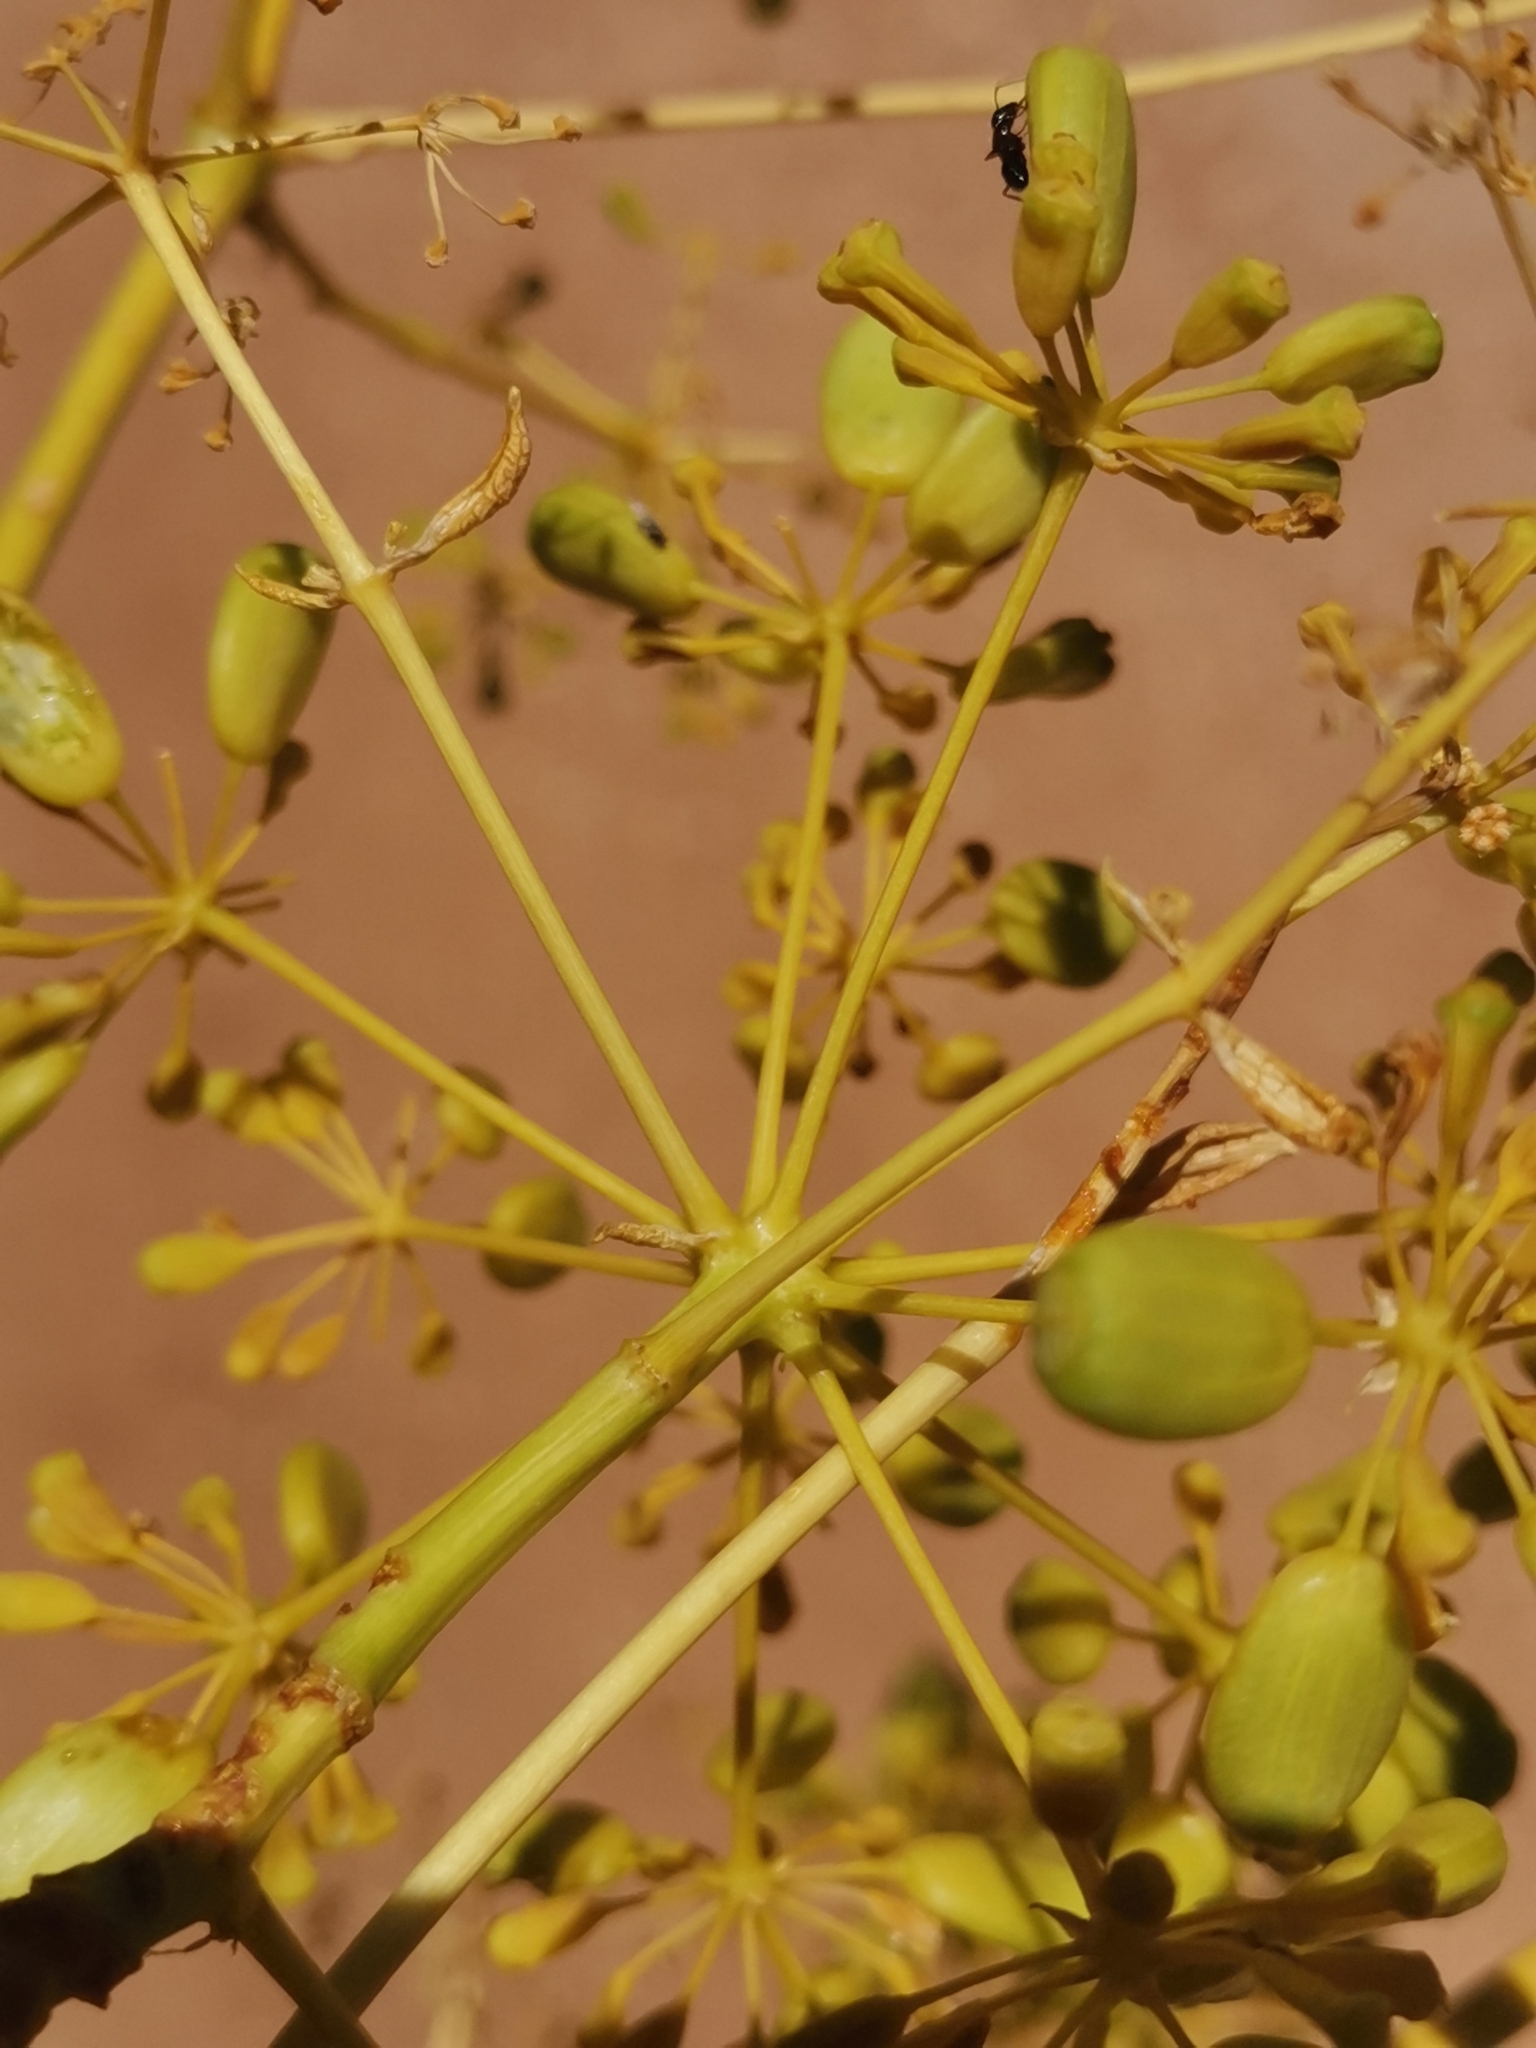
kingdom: Plantae
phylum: Tracheophyta
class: Magnoliopsida
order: Apiales
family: Apiaceae
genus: Opopanax
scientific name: Opopanax chironium
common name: Hercules-all-heal
